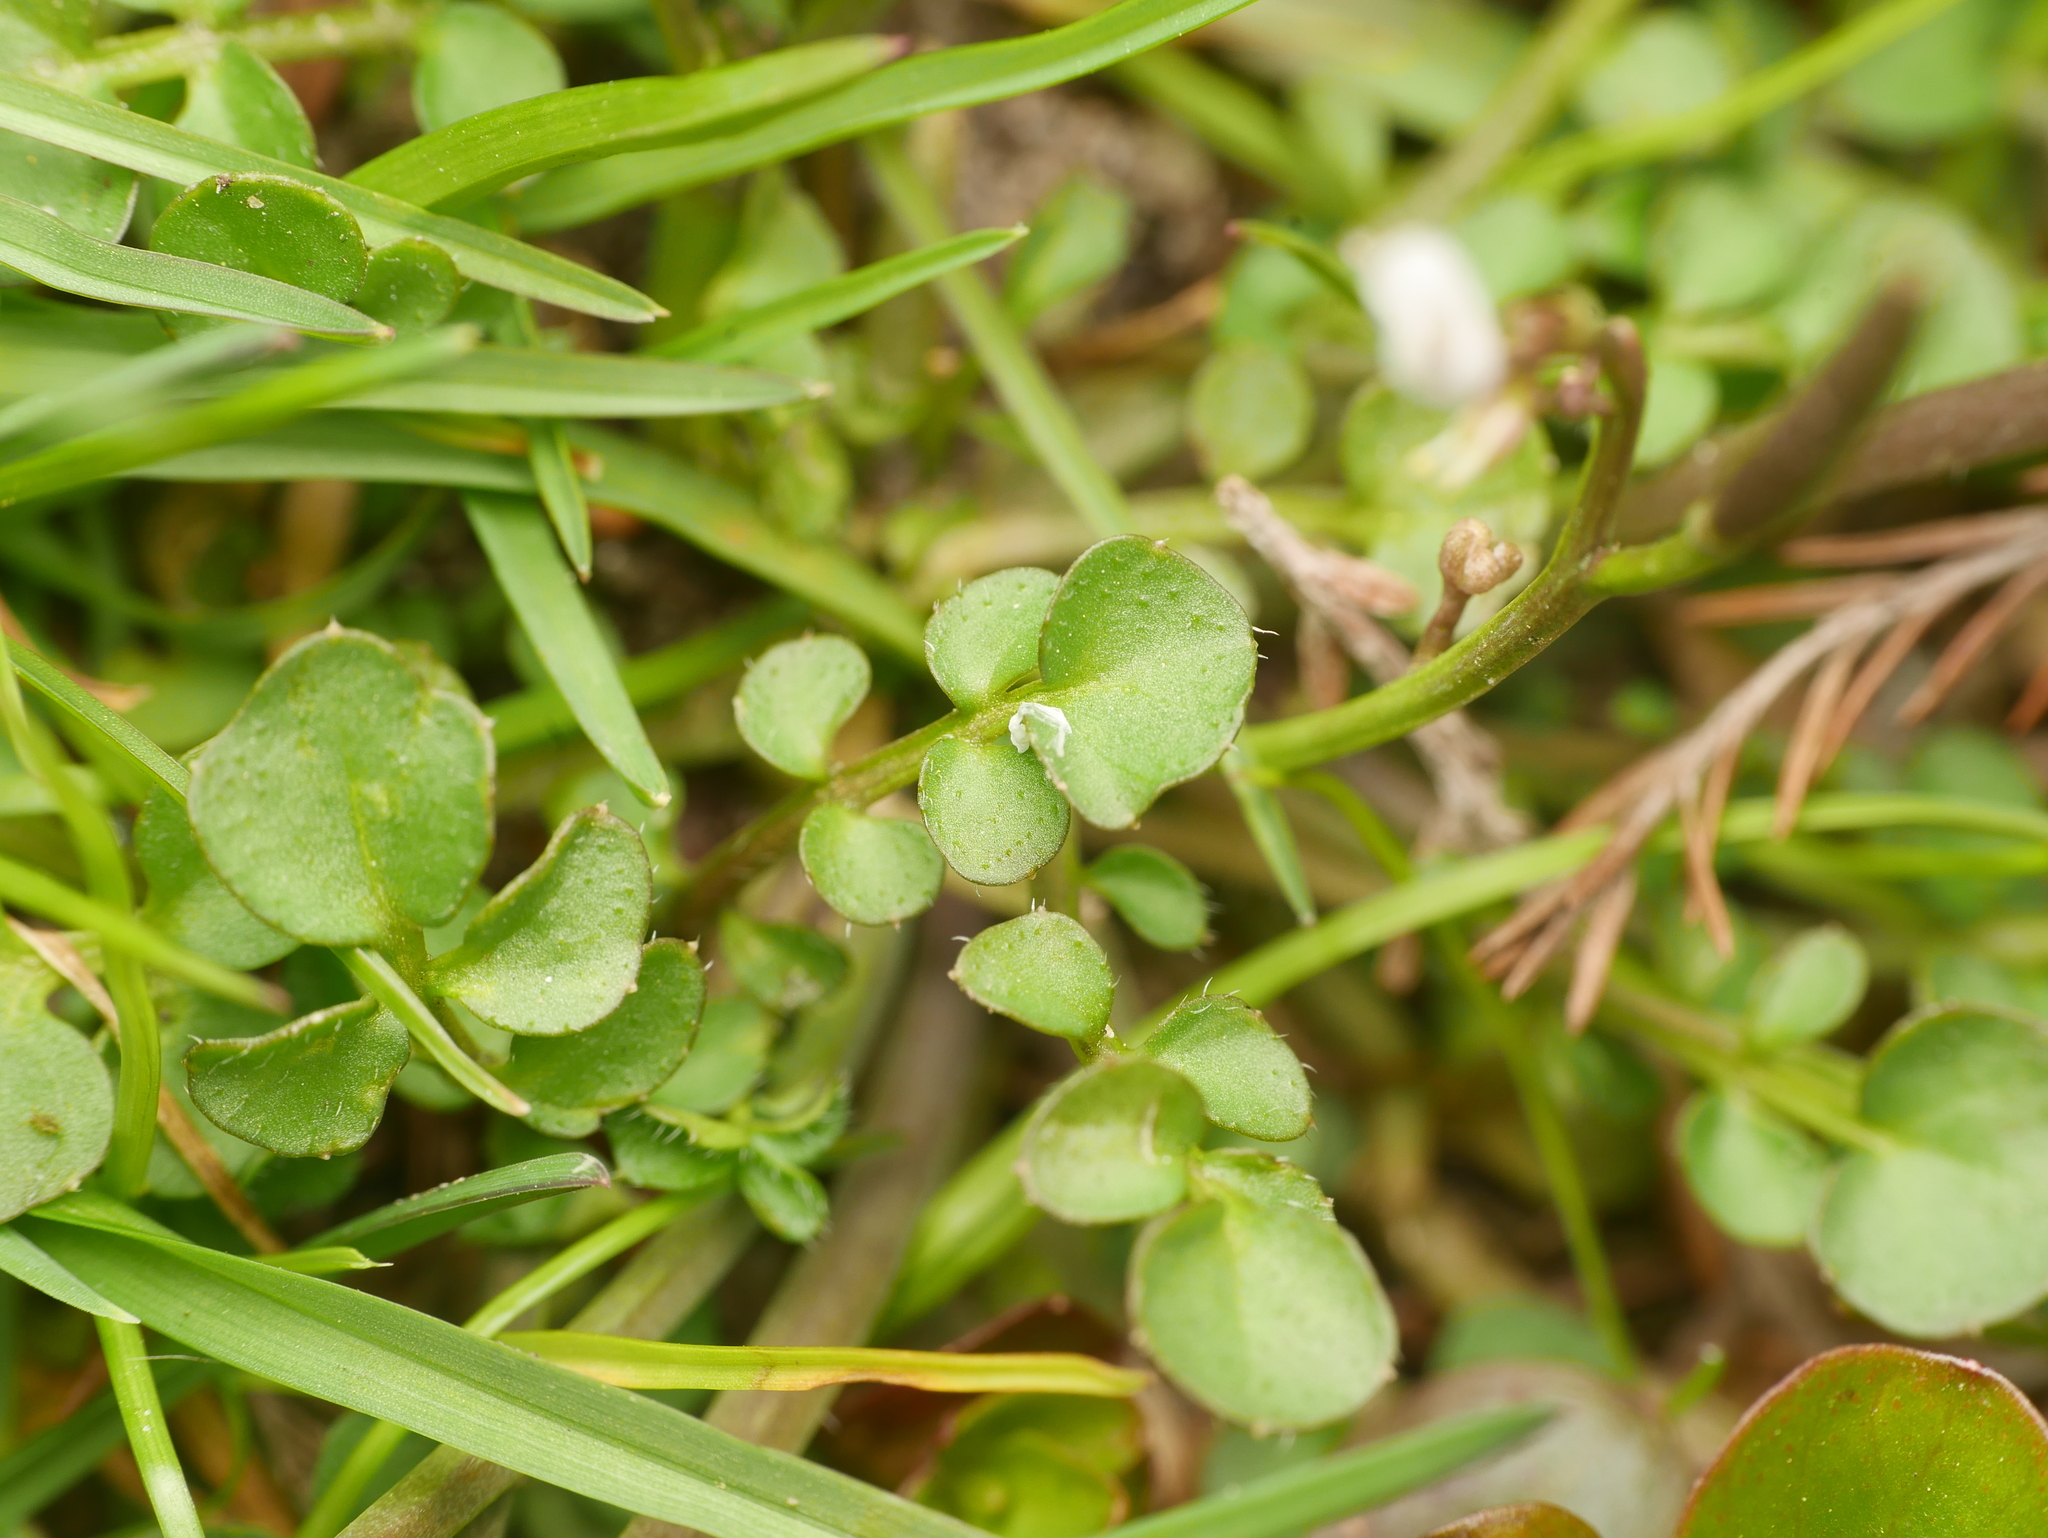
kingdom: Plantae
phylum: Tracheophyta
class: Magnoliopsida
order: Brassicales
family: Brassicaceae
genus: Cardamine
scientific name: Cardamine hirsuta
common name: Hairy bittercress
